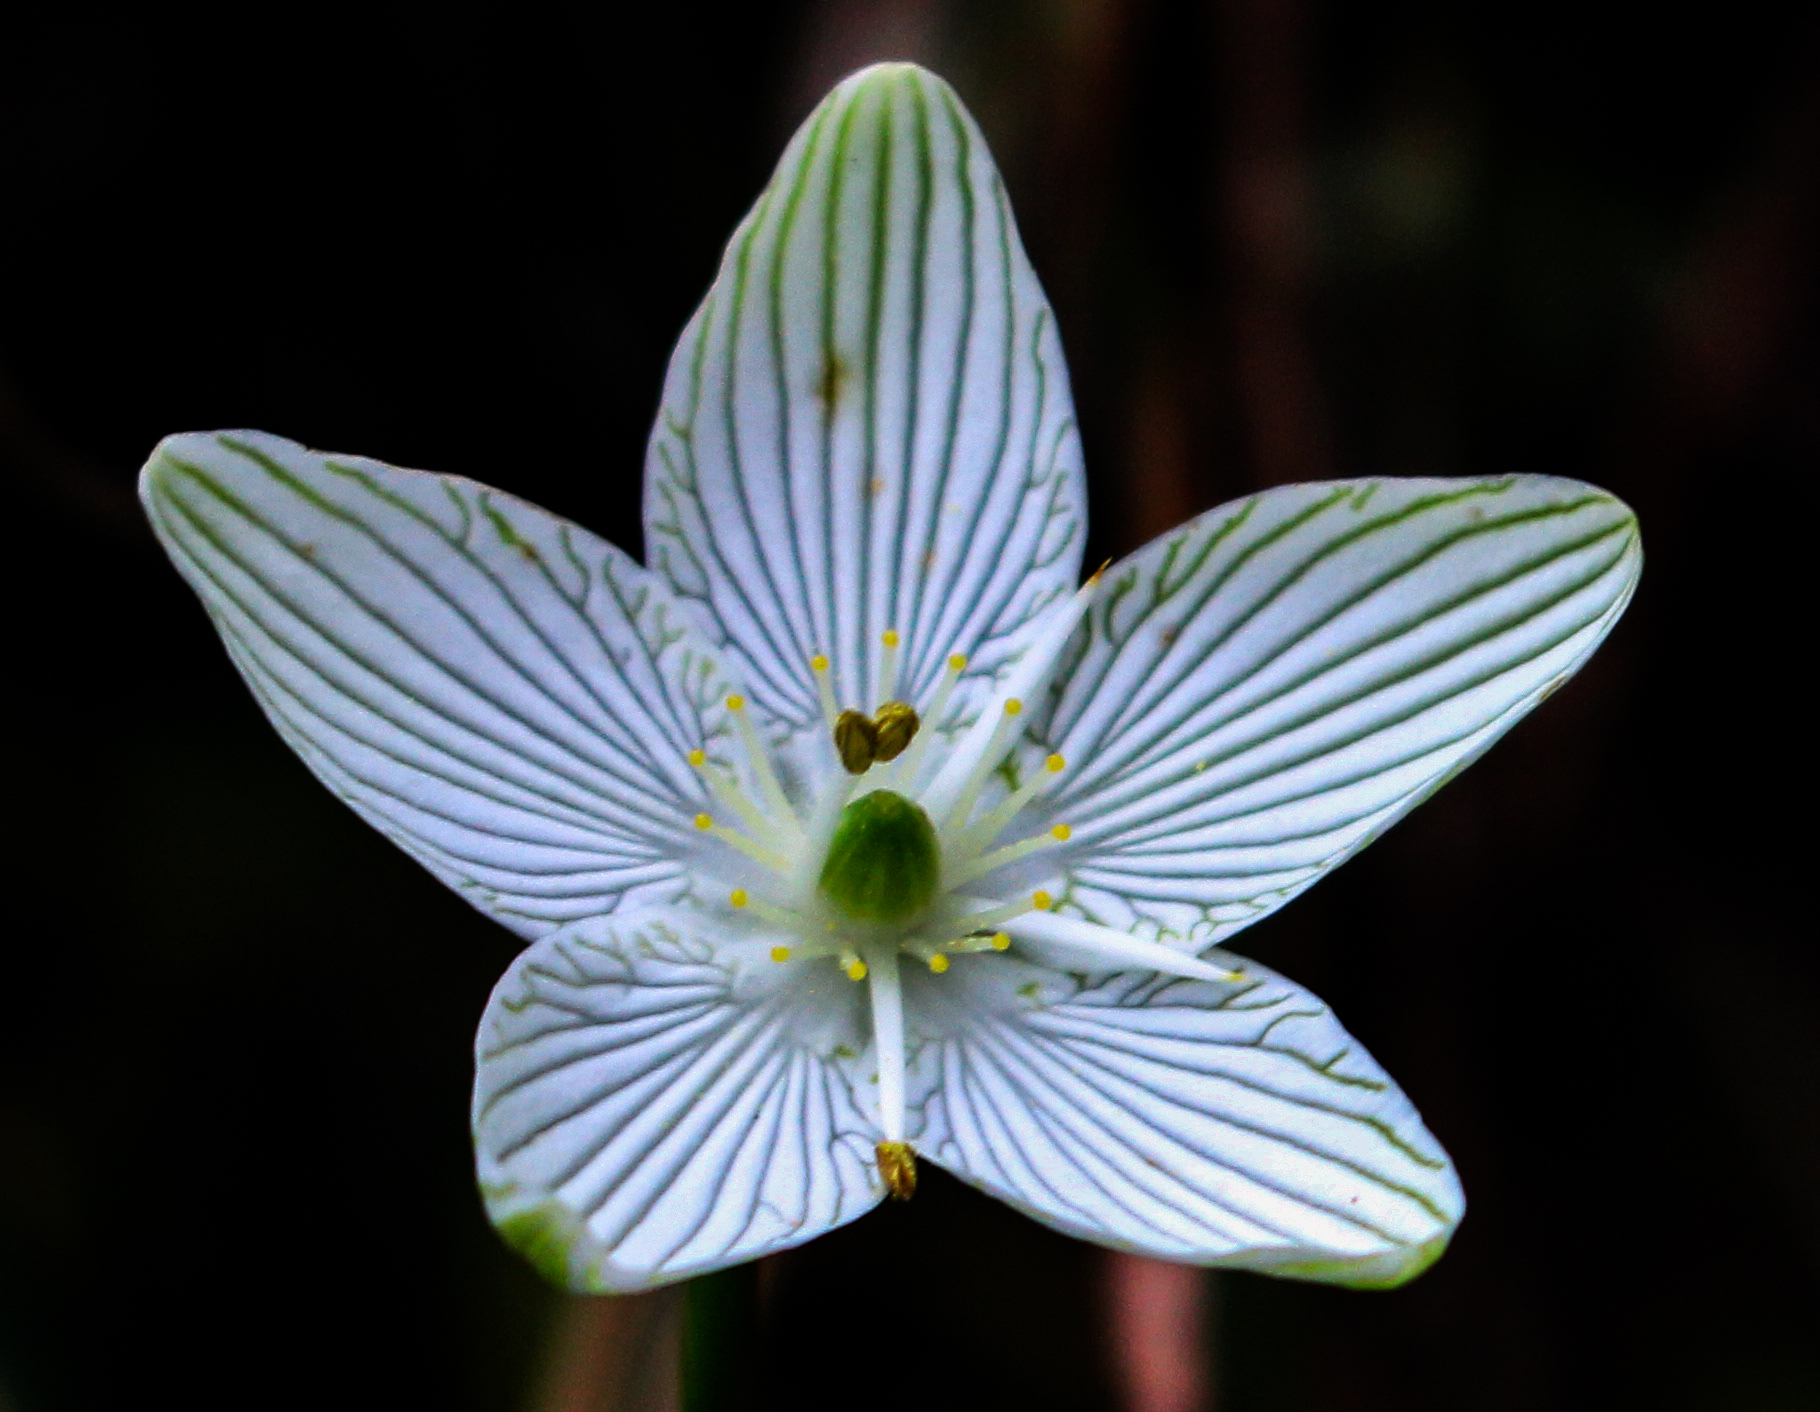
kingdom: Plantae
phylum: Tracheophyta
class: Magnoliopsida
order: Celastrales
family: Parnassiaceae
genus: Parnassia
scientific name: Parnassia glauca
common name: American grass-of-parnassus
